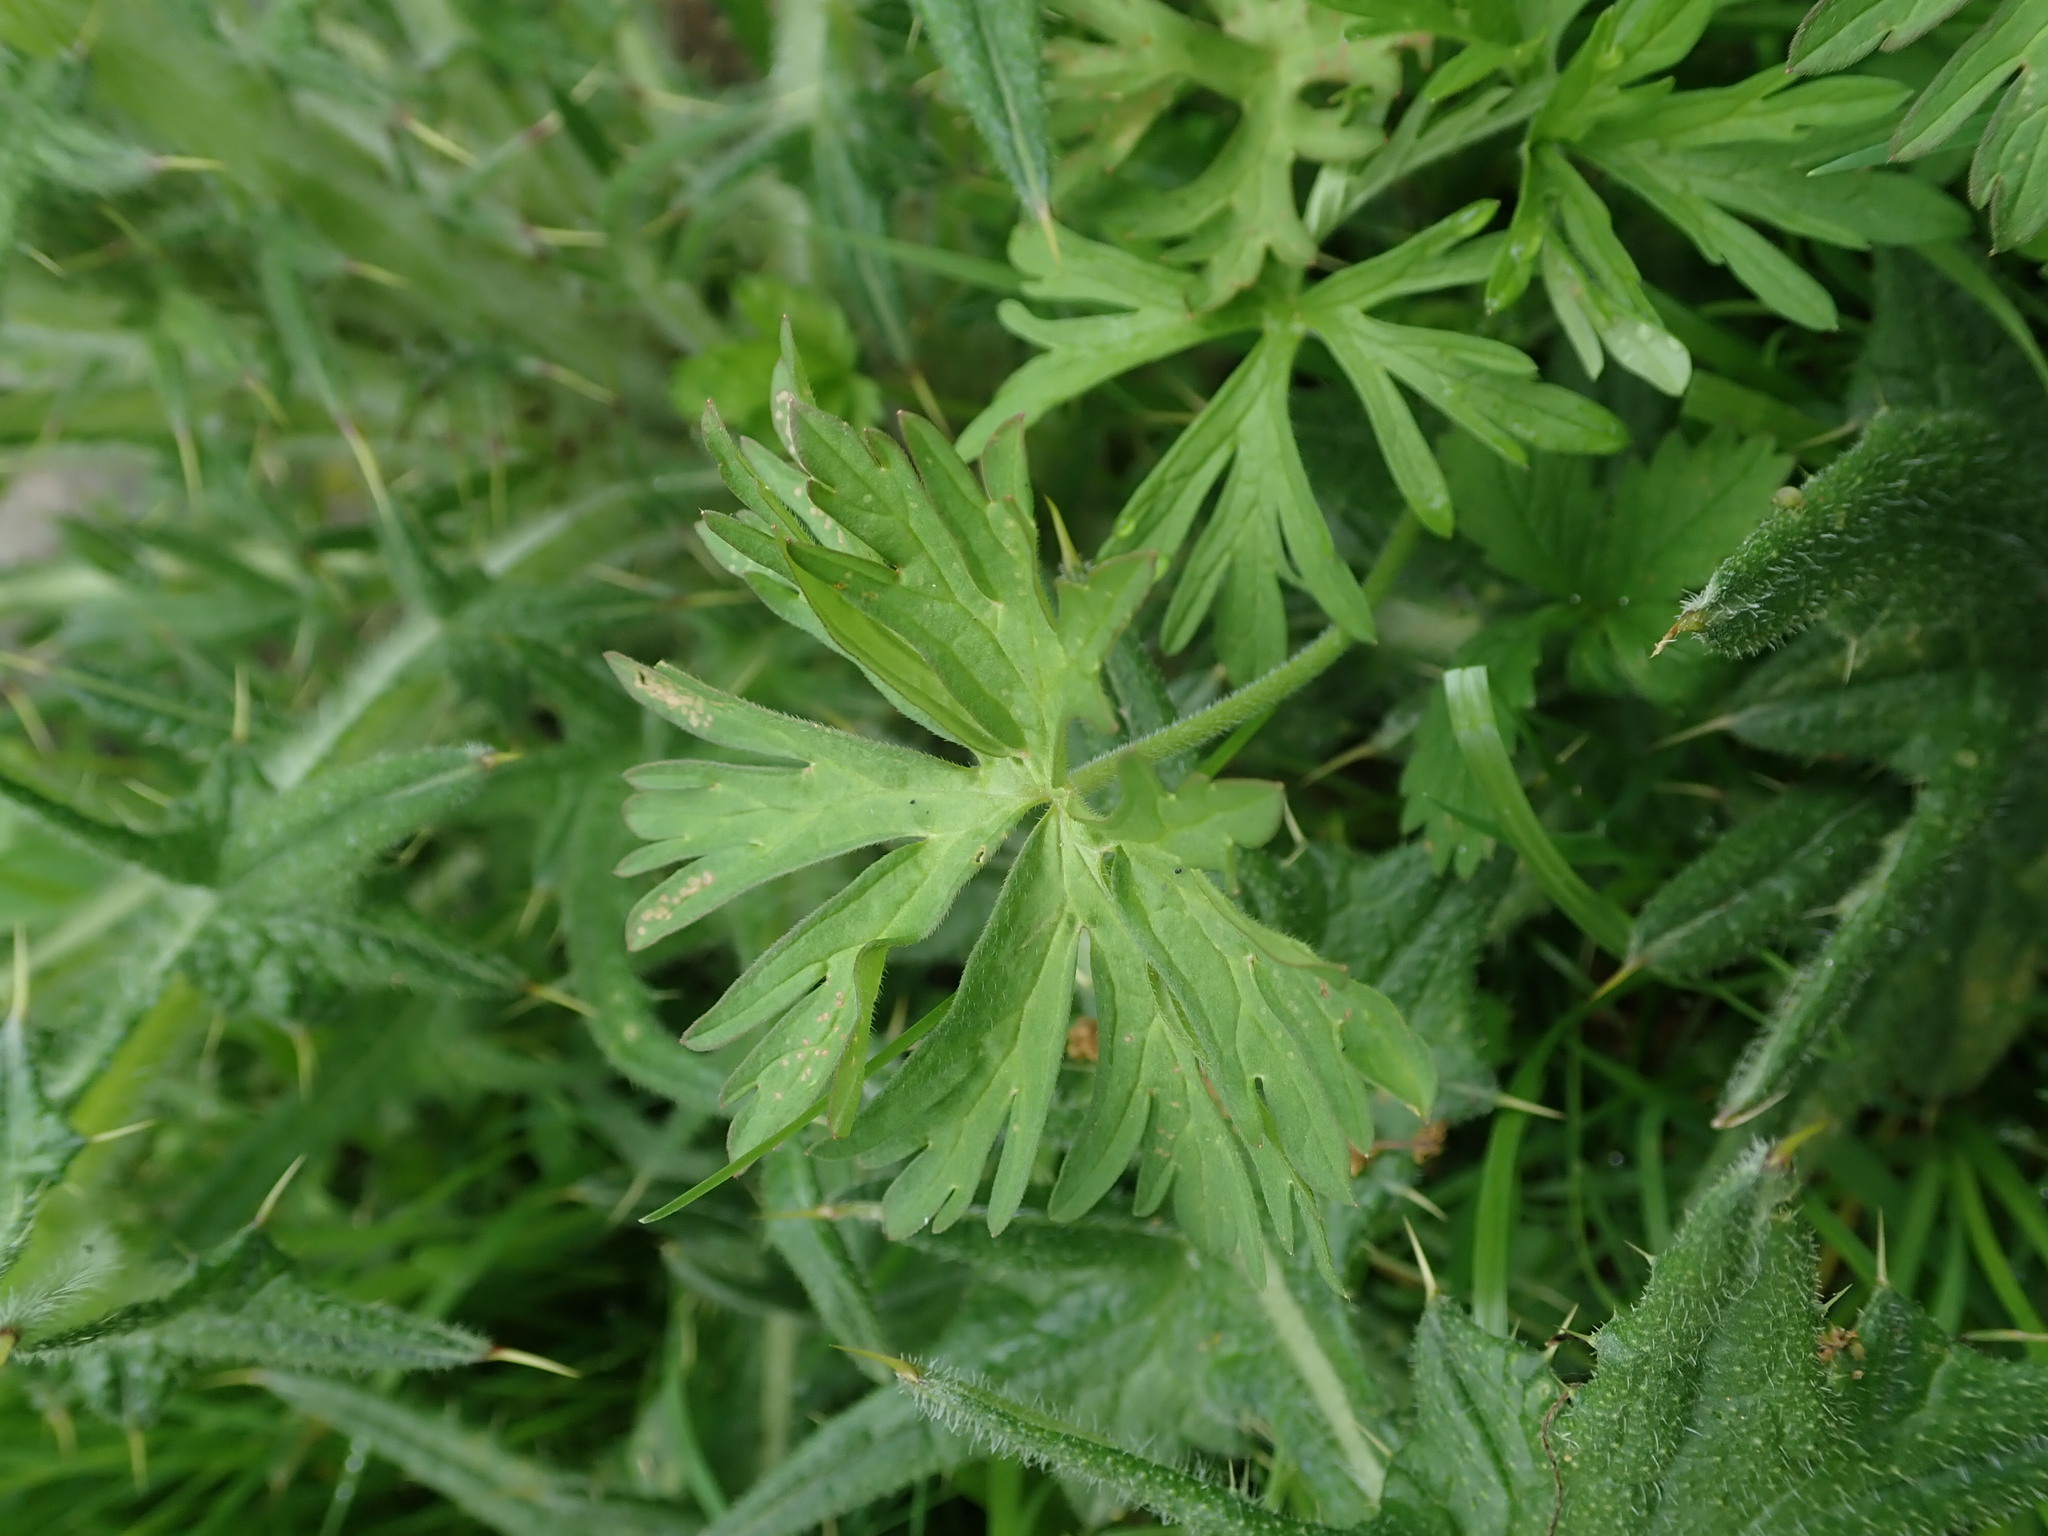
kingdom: Plantae
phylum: Tracheophyta
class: Magnoliopsida
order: Geraniales
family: Geraniaceae
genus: Geranium
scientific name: Geranium dissectum
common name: Cut-leaved crane's-bill
